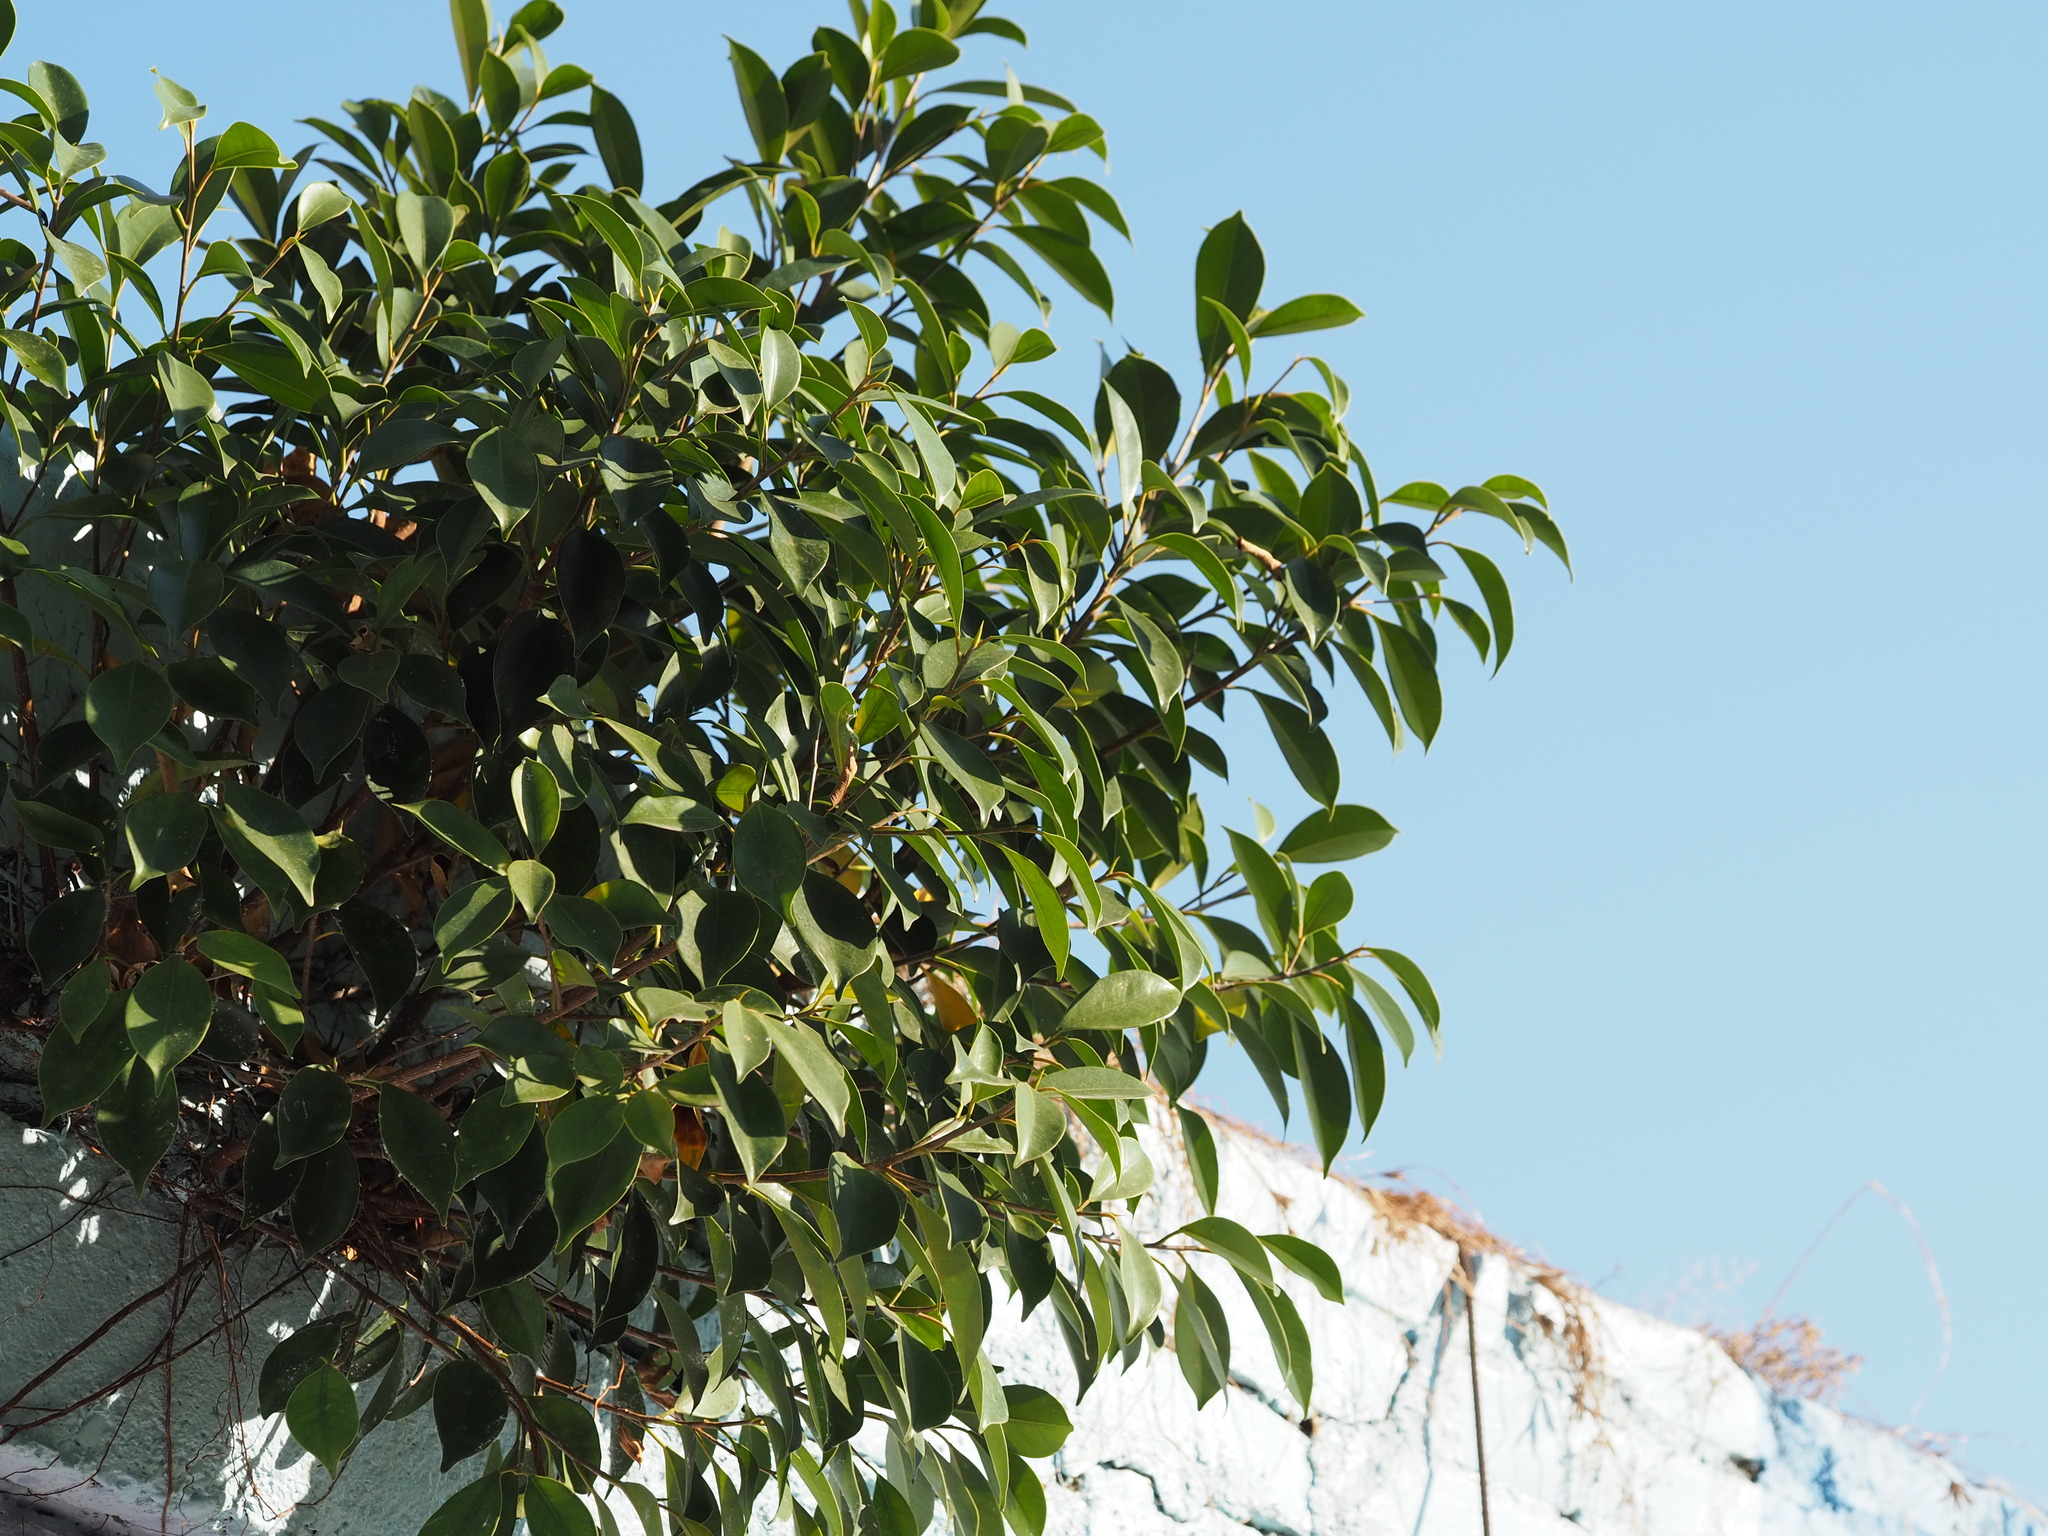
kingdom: Plantae
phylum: Tracheophyta
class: Magnoliopsida
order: Rosales
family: Moraceae
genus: Ficus
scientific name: Ficus microcarpa
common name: Chinese banyan
